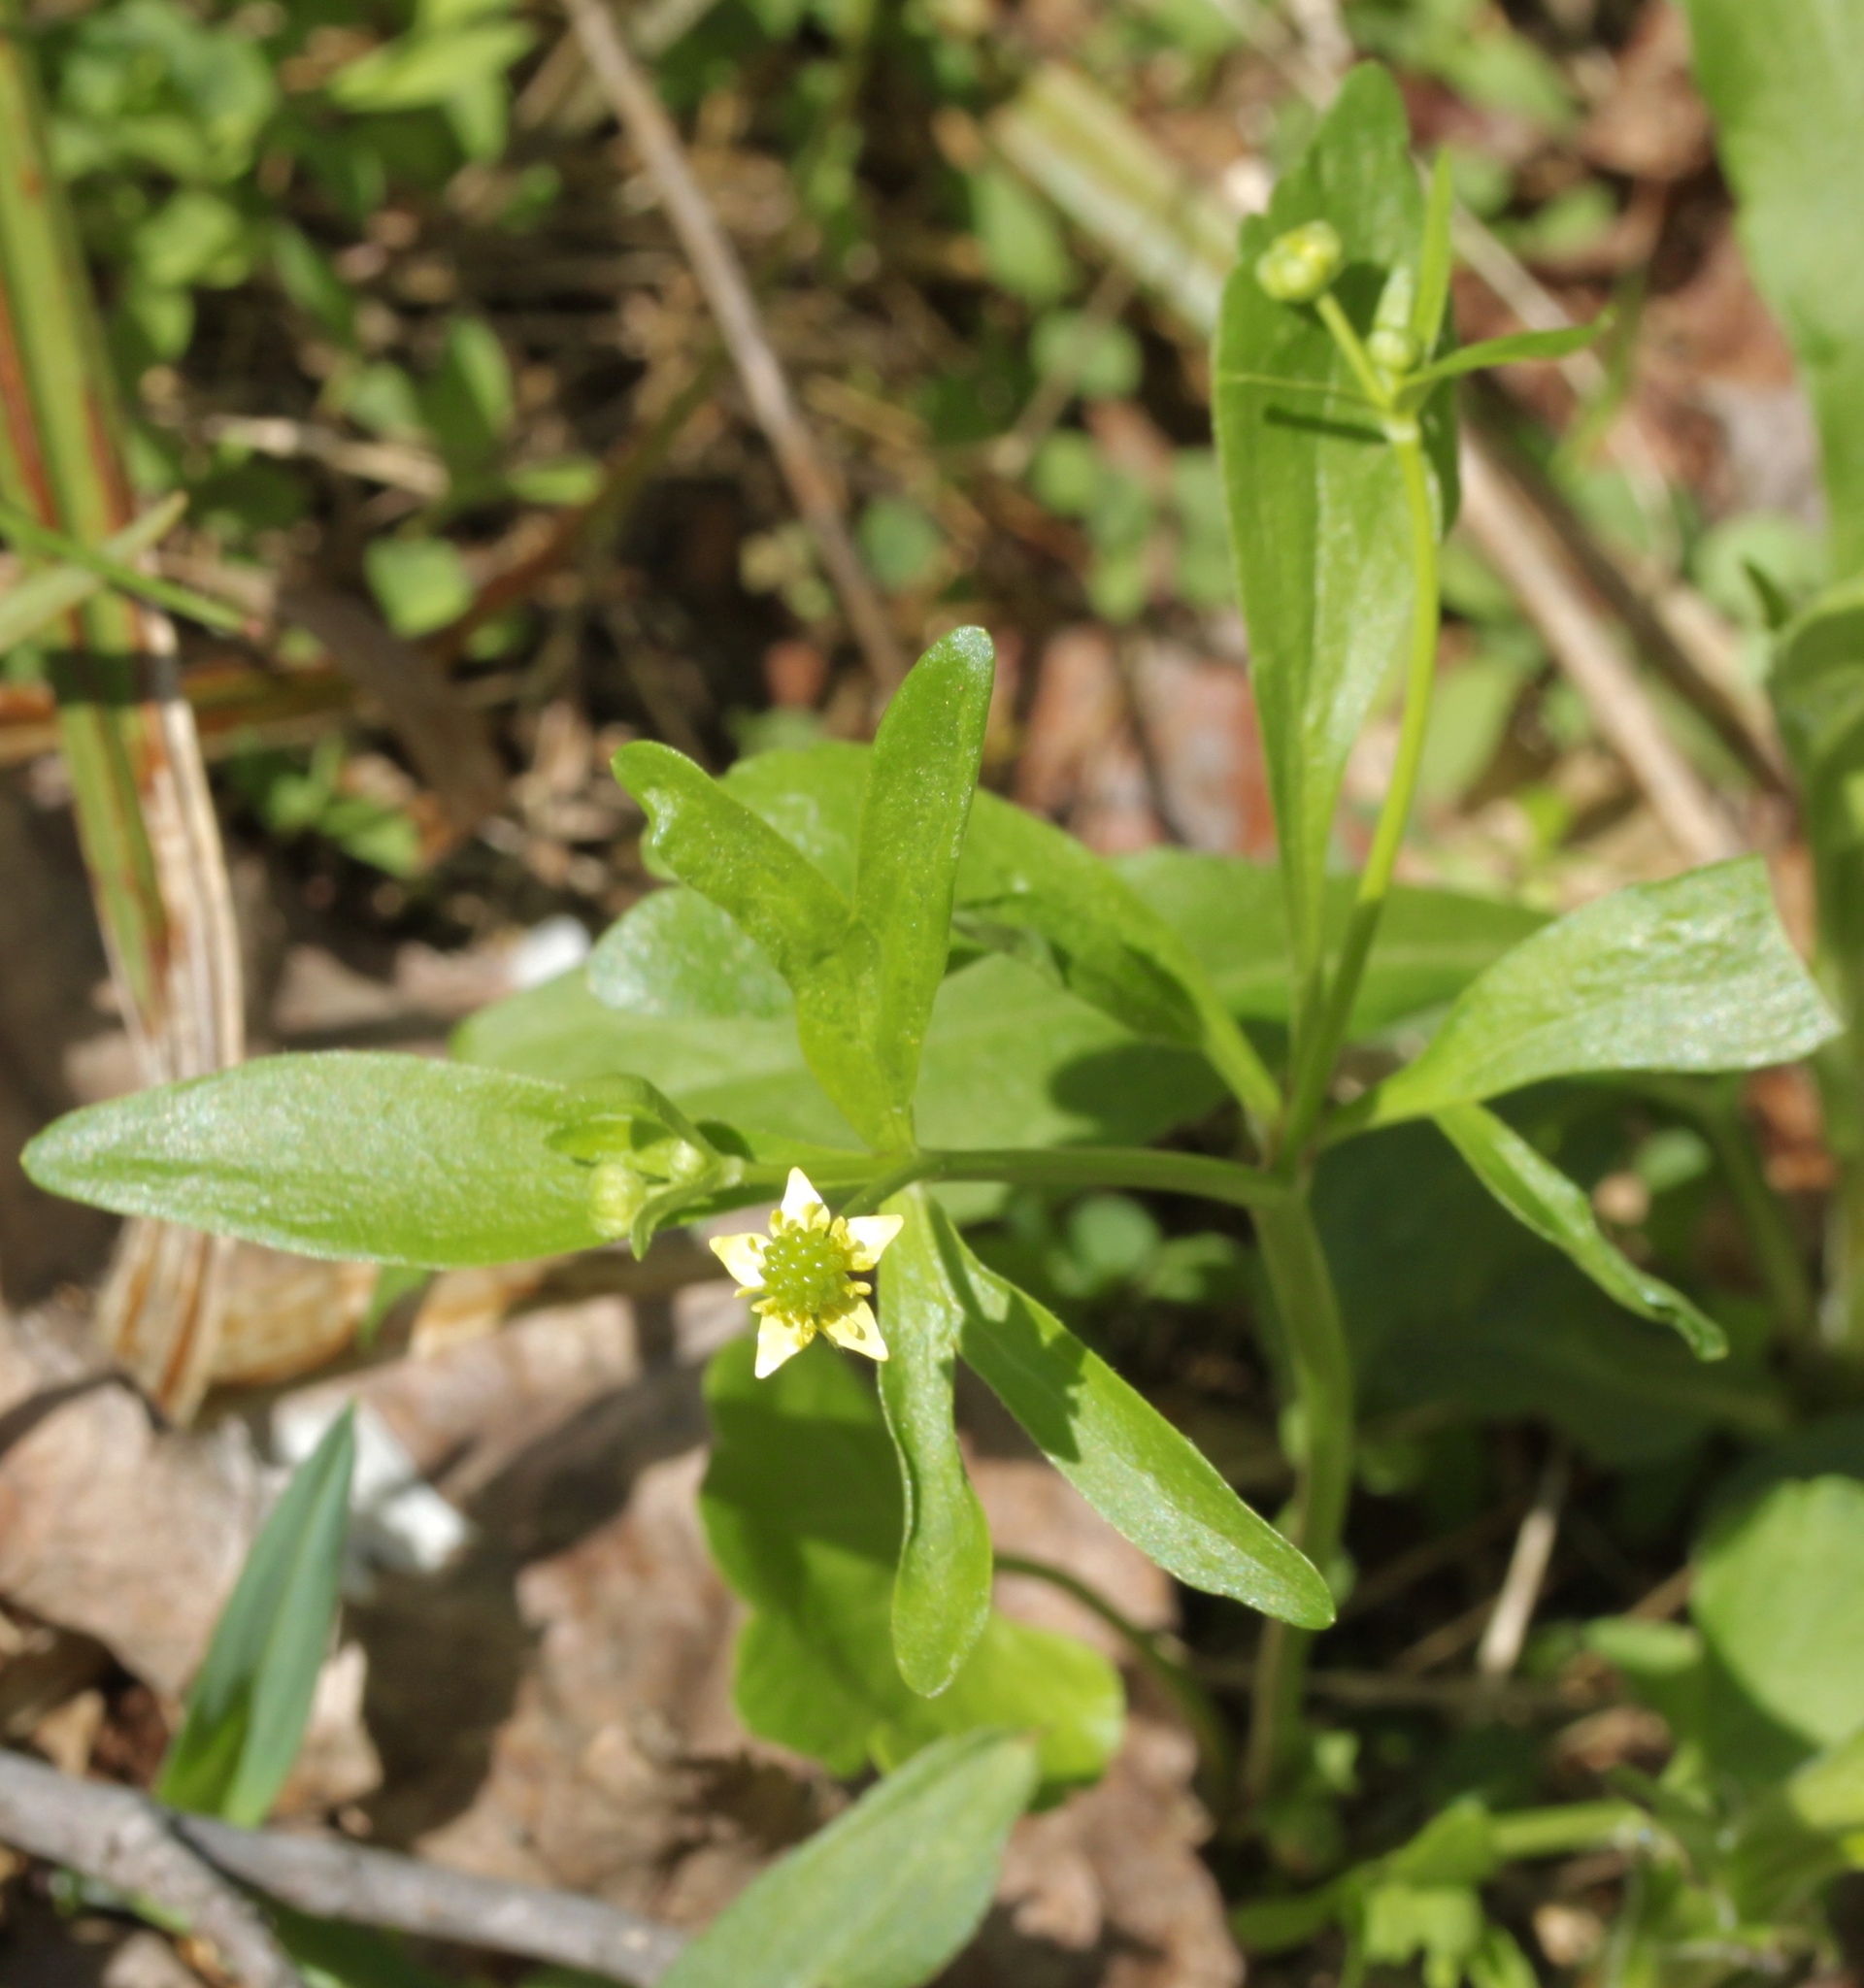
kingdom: Plantae
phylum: Tracheophyta
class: Magnoliopsida
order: Ranunculales
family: Ranunculaceae
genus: Ranunculus
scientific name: Ranunculus abortivus
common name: Early wood buttercup
